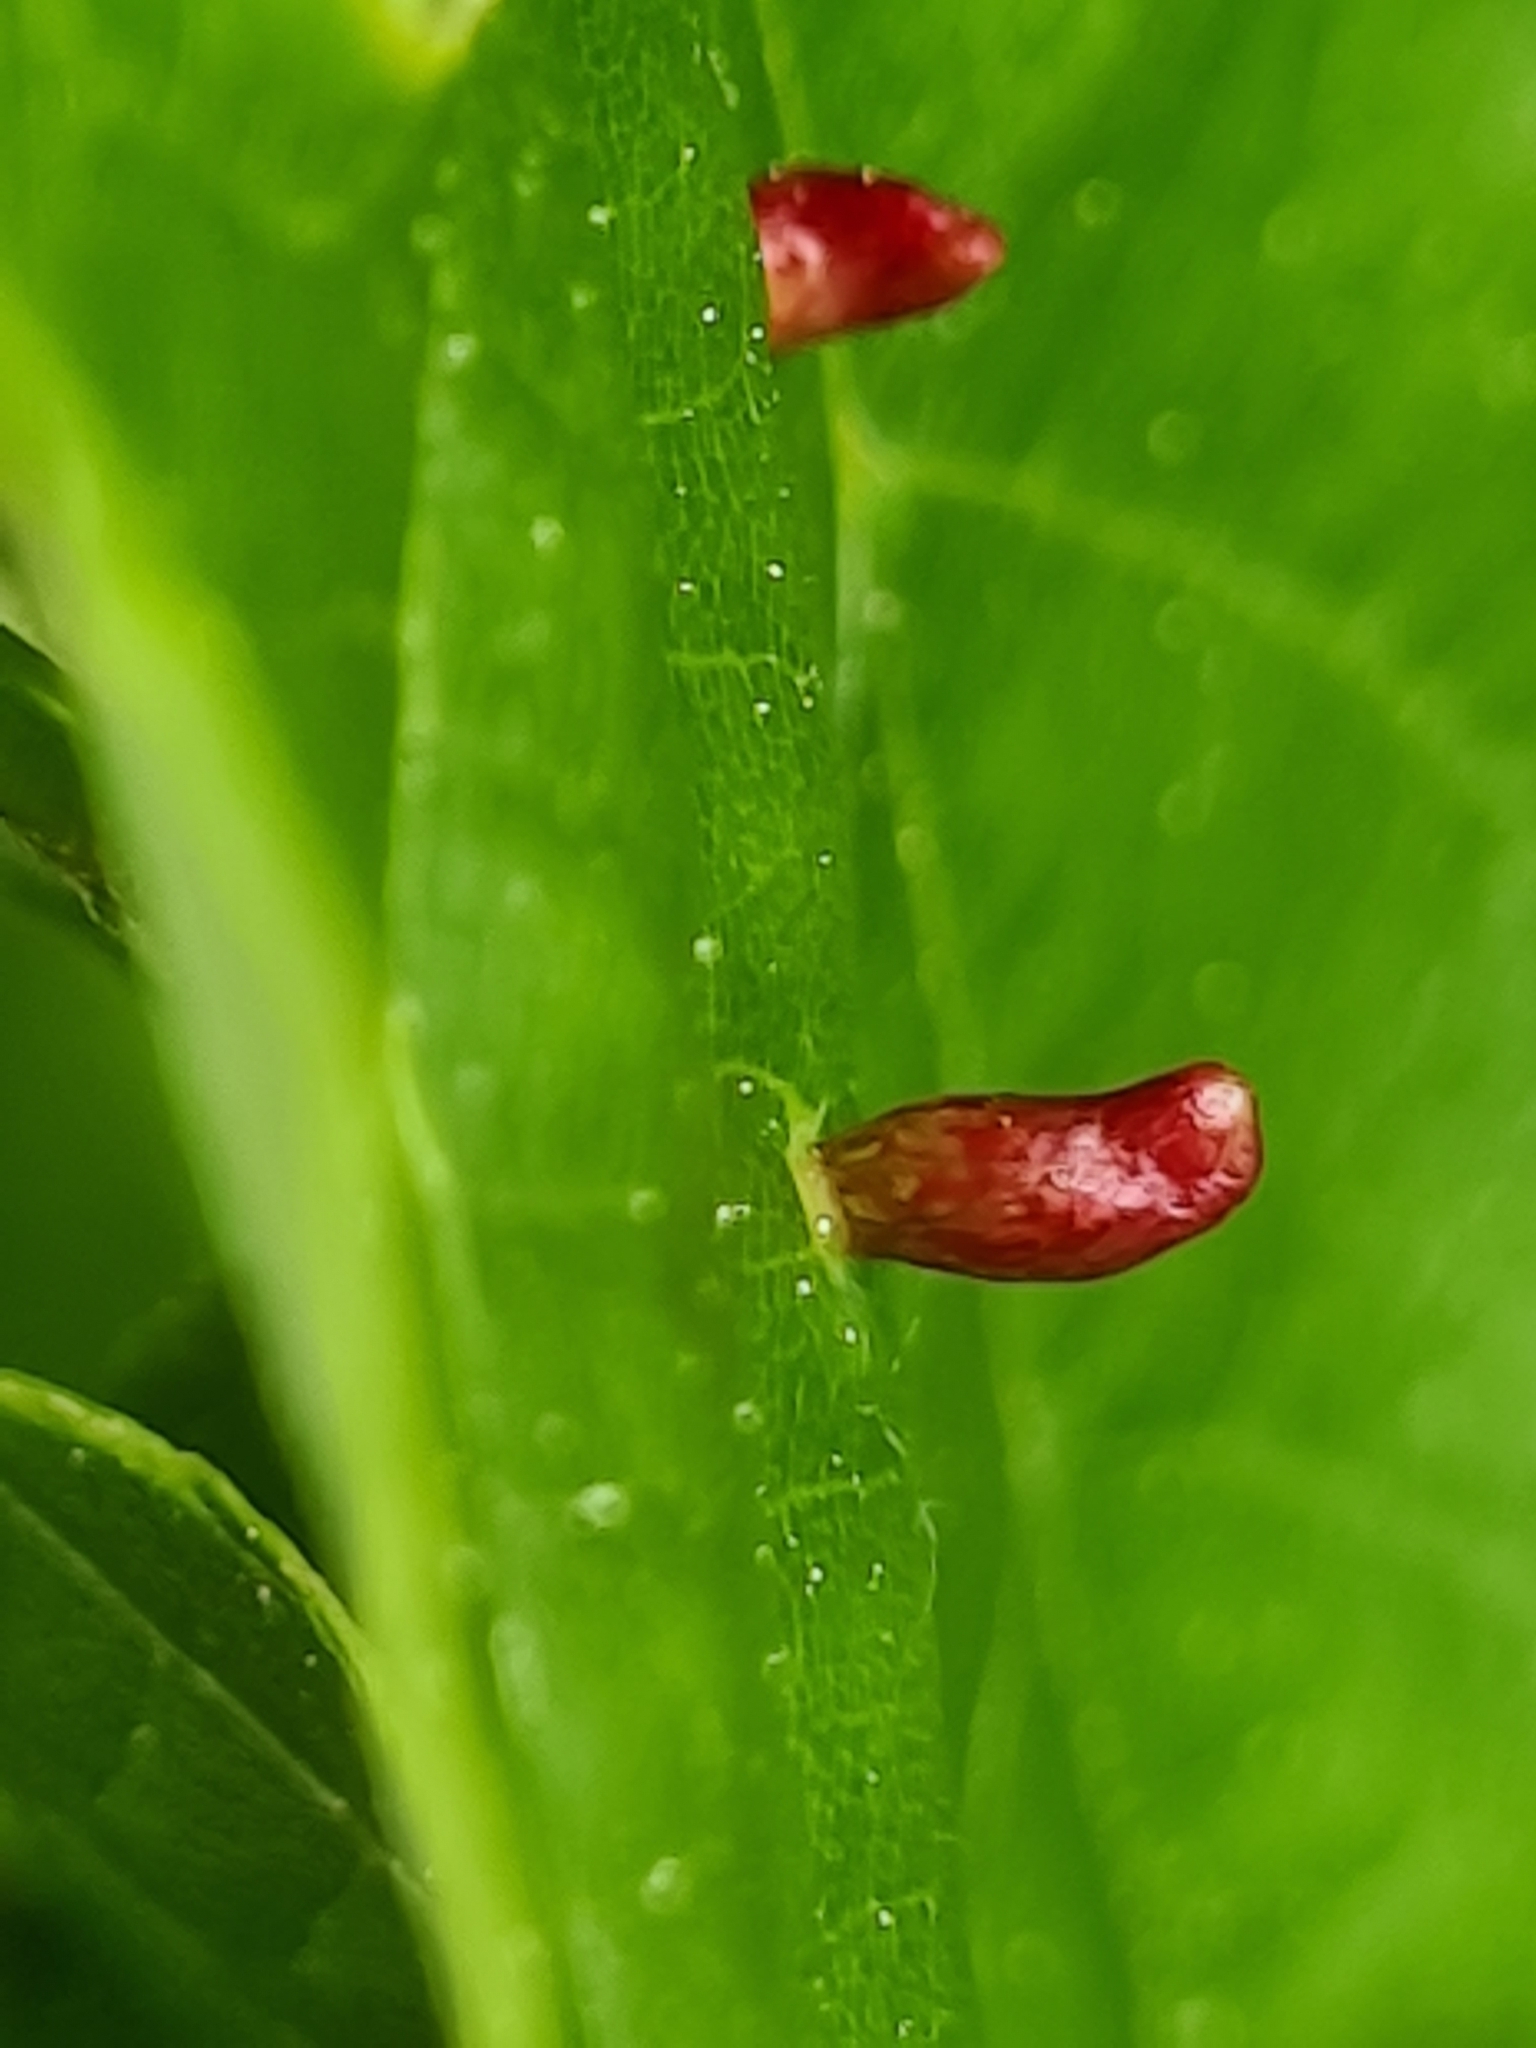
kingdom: Animalia
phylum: Arthropoda
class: Arachnida
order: Trombidiformes
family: Eriophyidae
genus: Eriophyes
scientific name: Eriophyes tiliae
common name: Red nail gall mite
